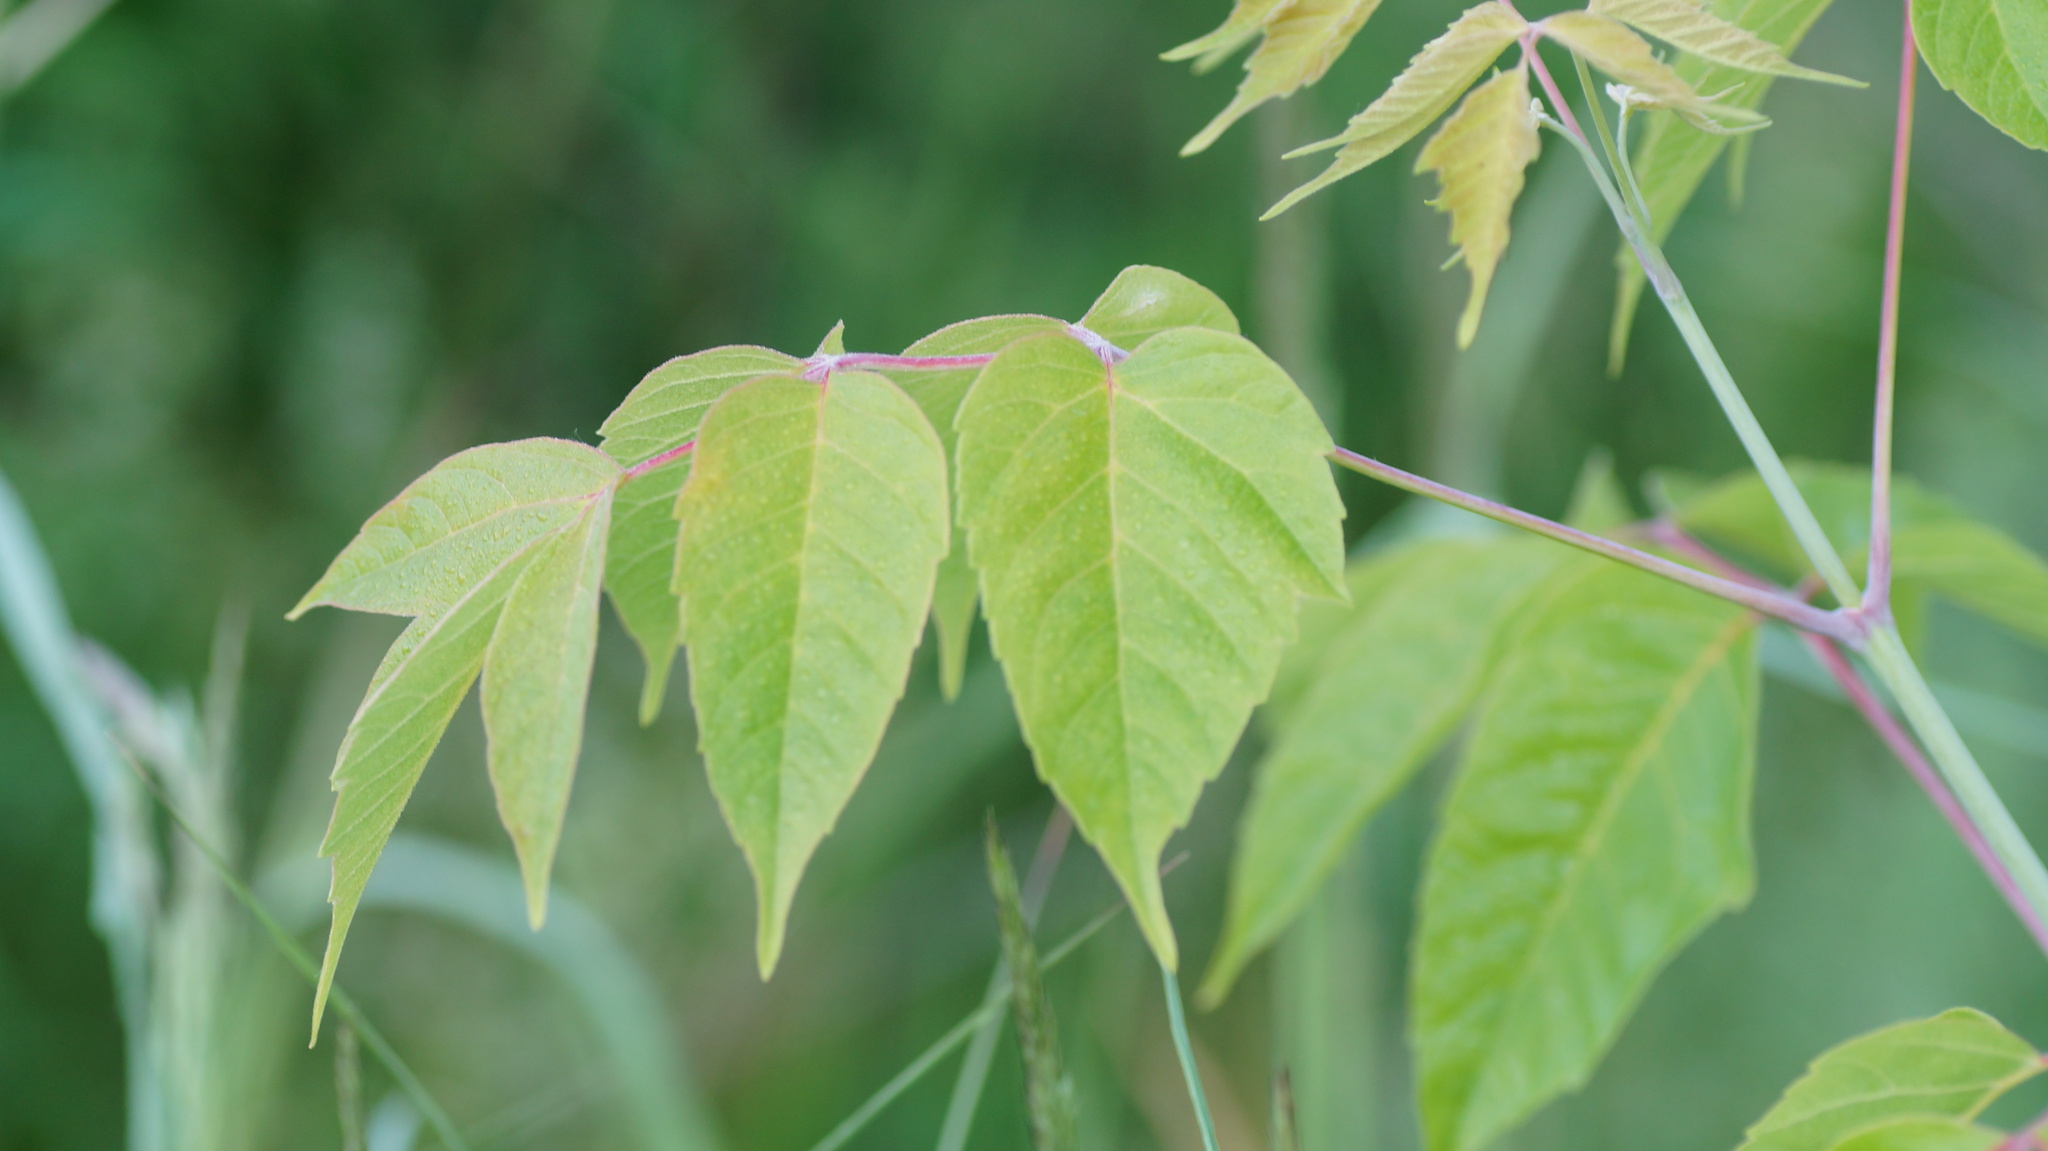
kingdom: Plantae
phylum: Tracheophyta
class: Magnoliopsida
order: Sapindales
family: Sapindaceae
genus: Acer
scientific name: Acer negundo
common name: Ashleaf maple
